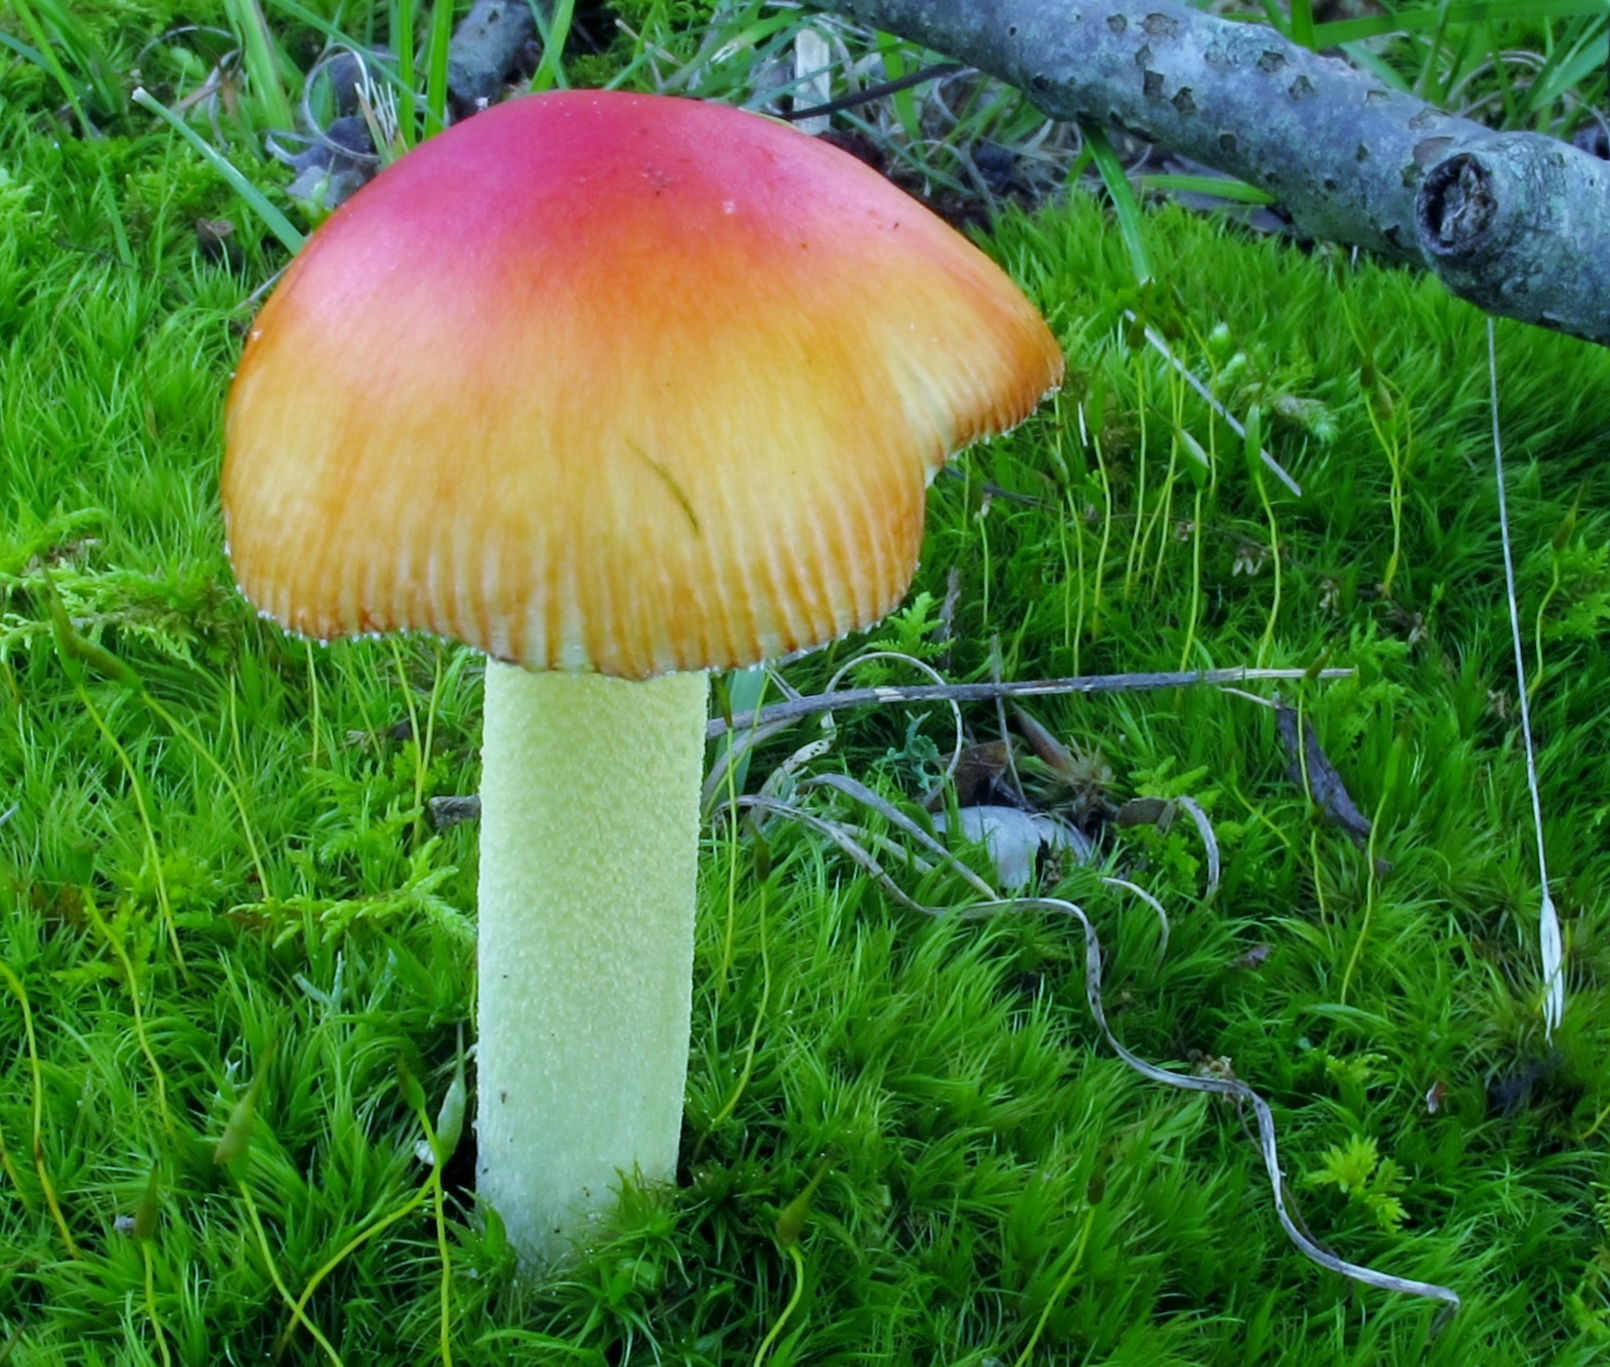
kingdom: Fungi
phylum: Basidiomycota
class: Agaricomycetes
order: Agaricales
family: Amanitaceae
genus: Amanita
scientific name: Amanita parcivolvata
